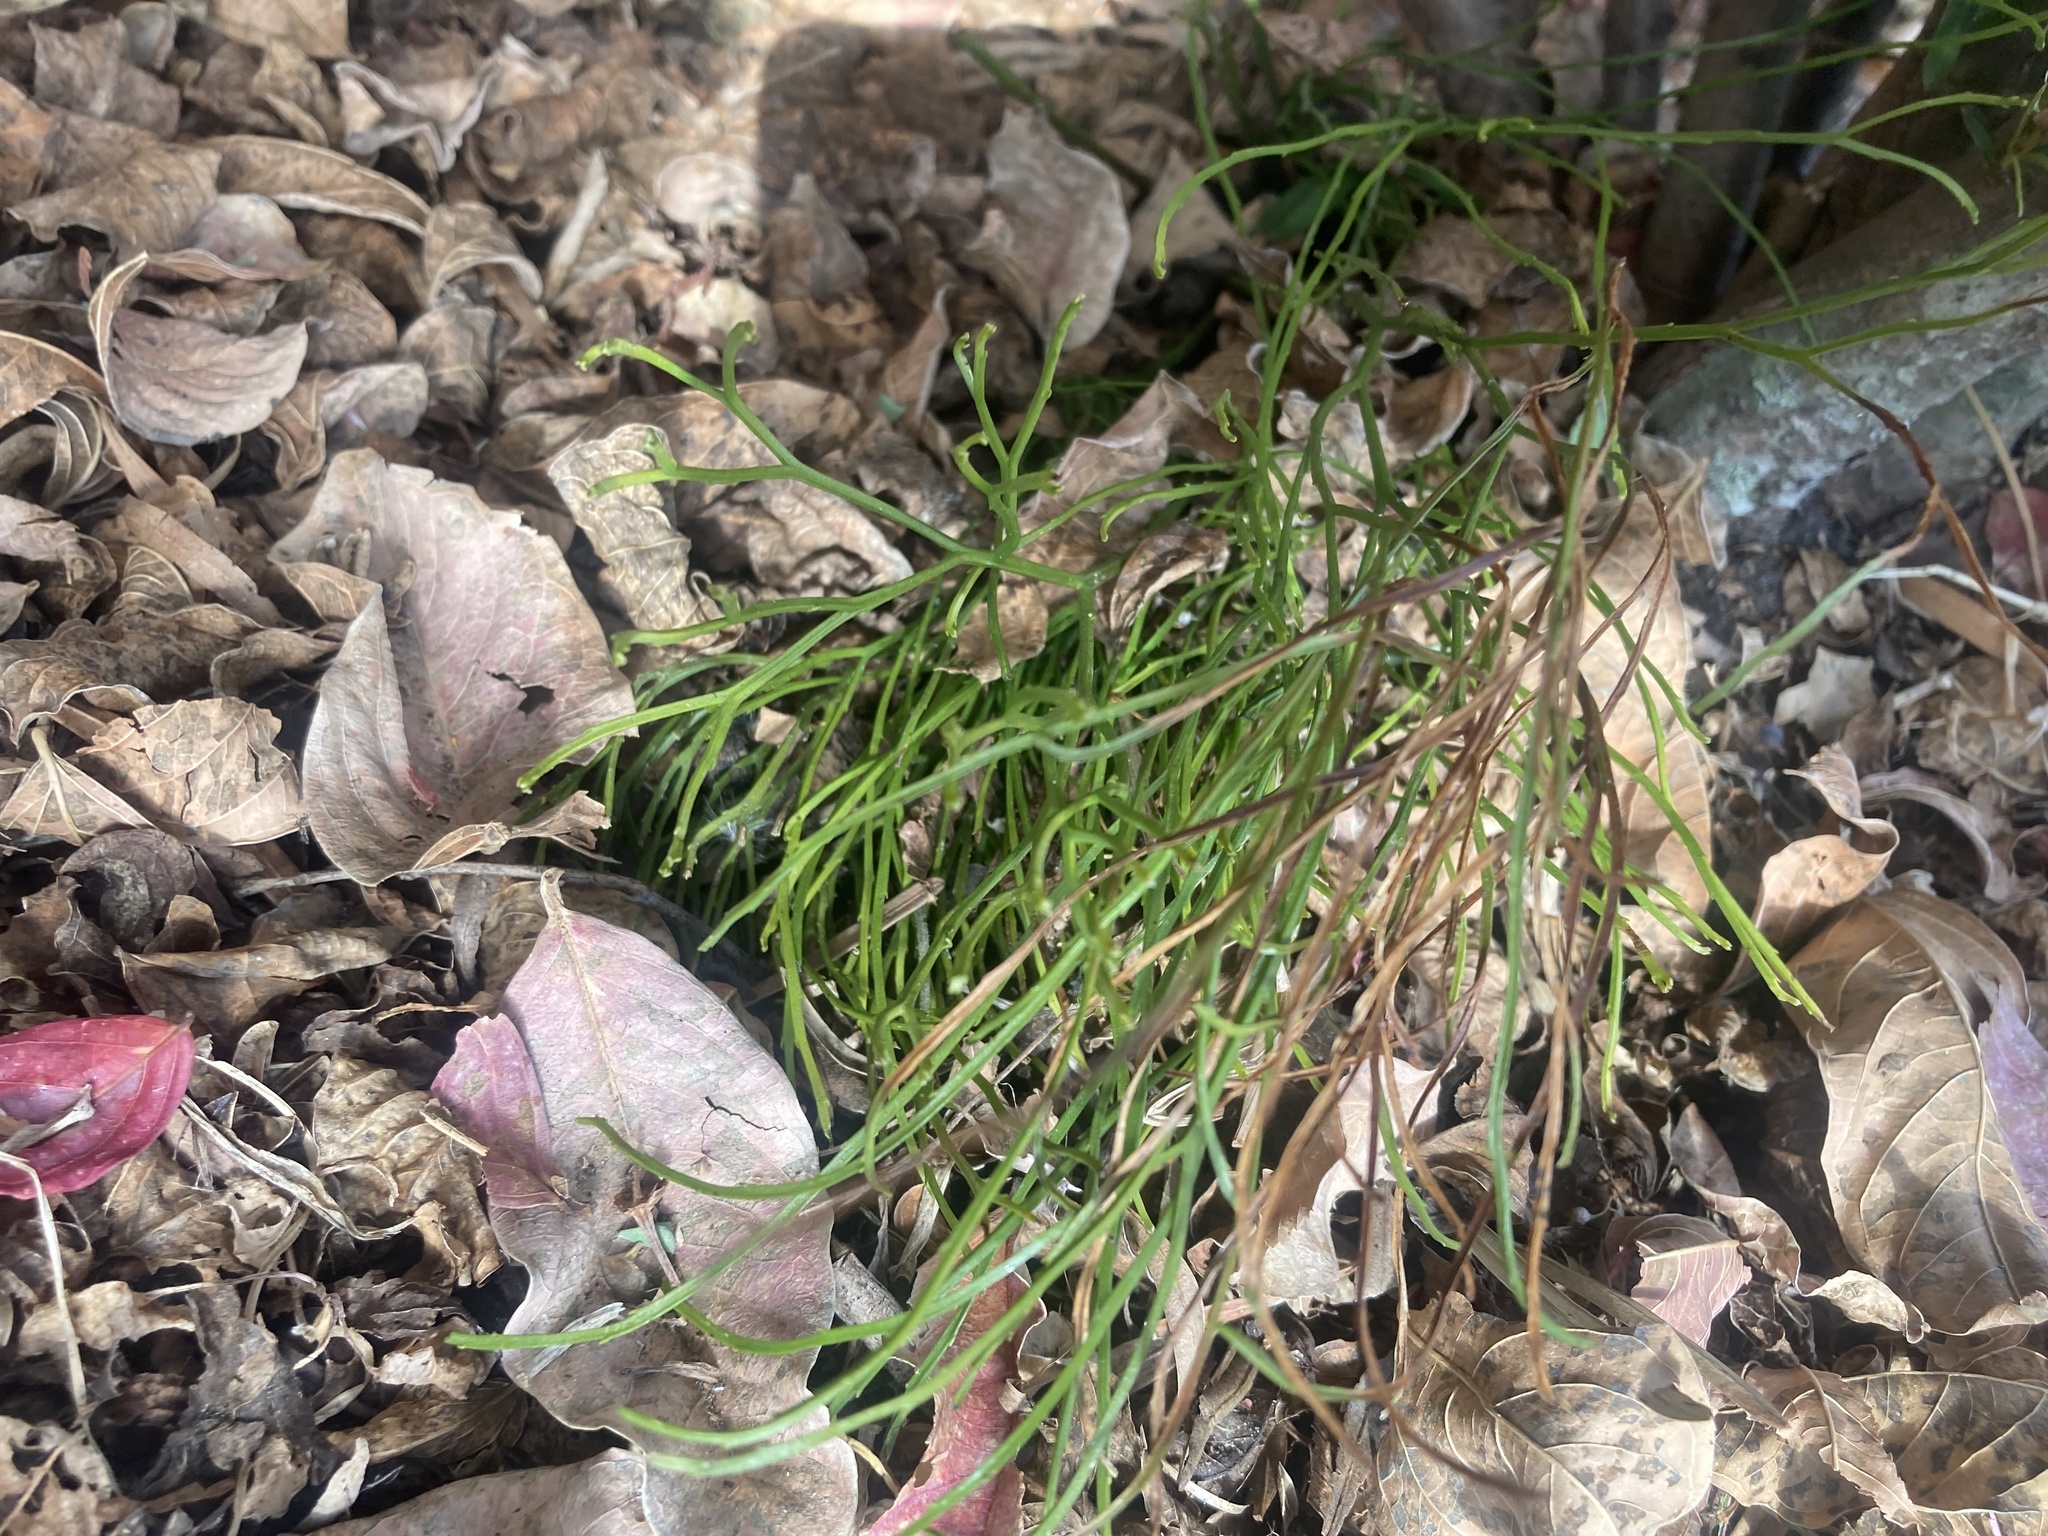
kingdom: Plantae
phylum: Tracheophyta
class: Polypodiopsida
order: Psilotales
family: Psilotaceae
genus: Psilotum
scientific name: Psilotum nudum
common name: Skeleton fork fern
